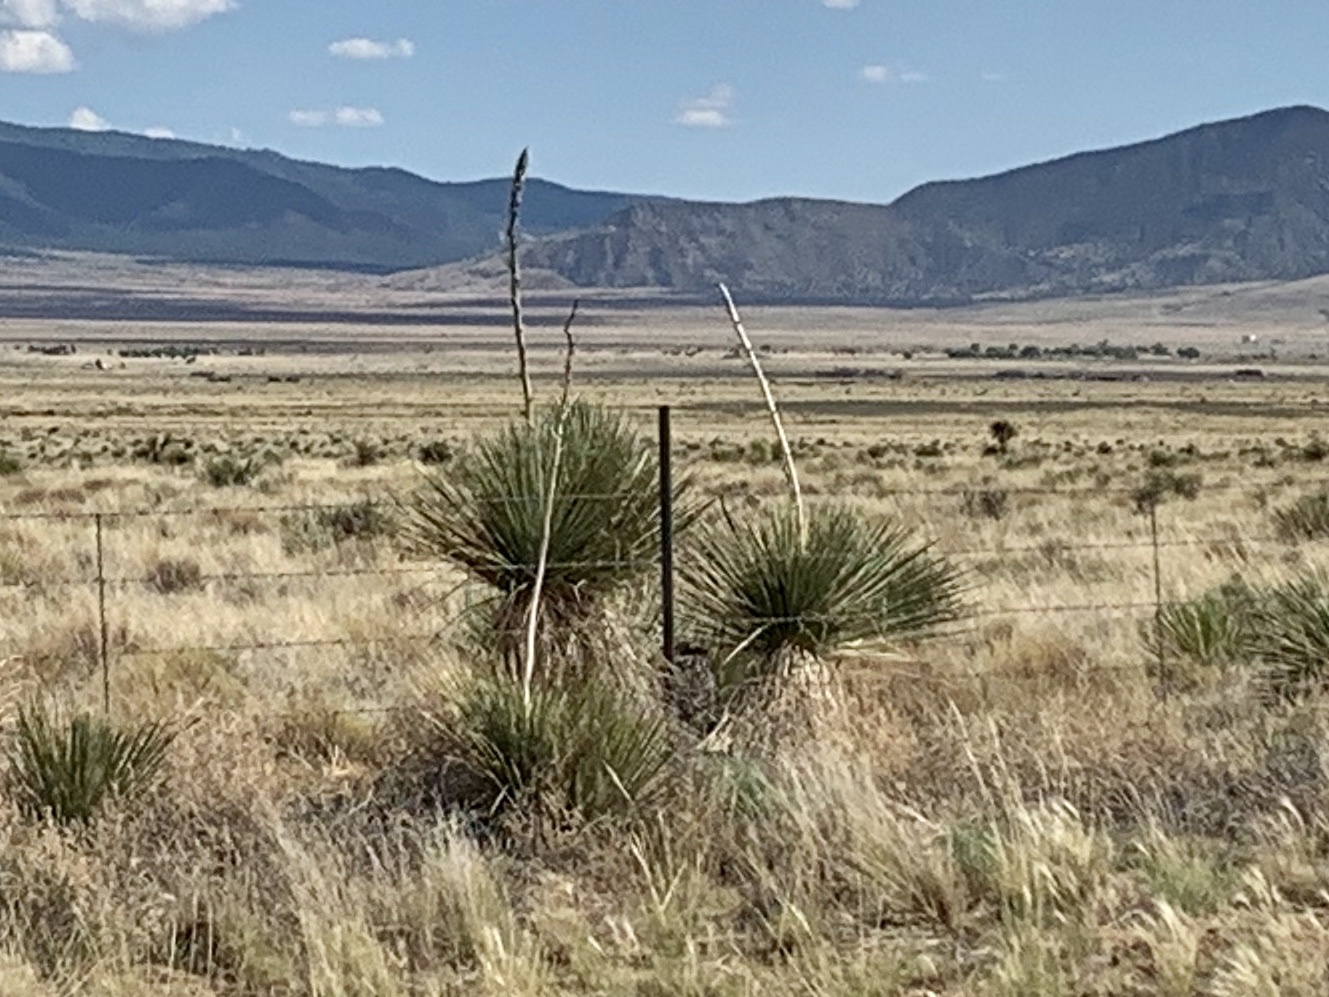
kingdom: Plantae
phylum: Tracheophyta
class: Liliopsida
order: Asparagales
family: Asparagaceae
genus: Yucca
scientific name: Yucca elata
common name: Palmella
